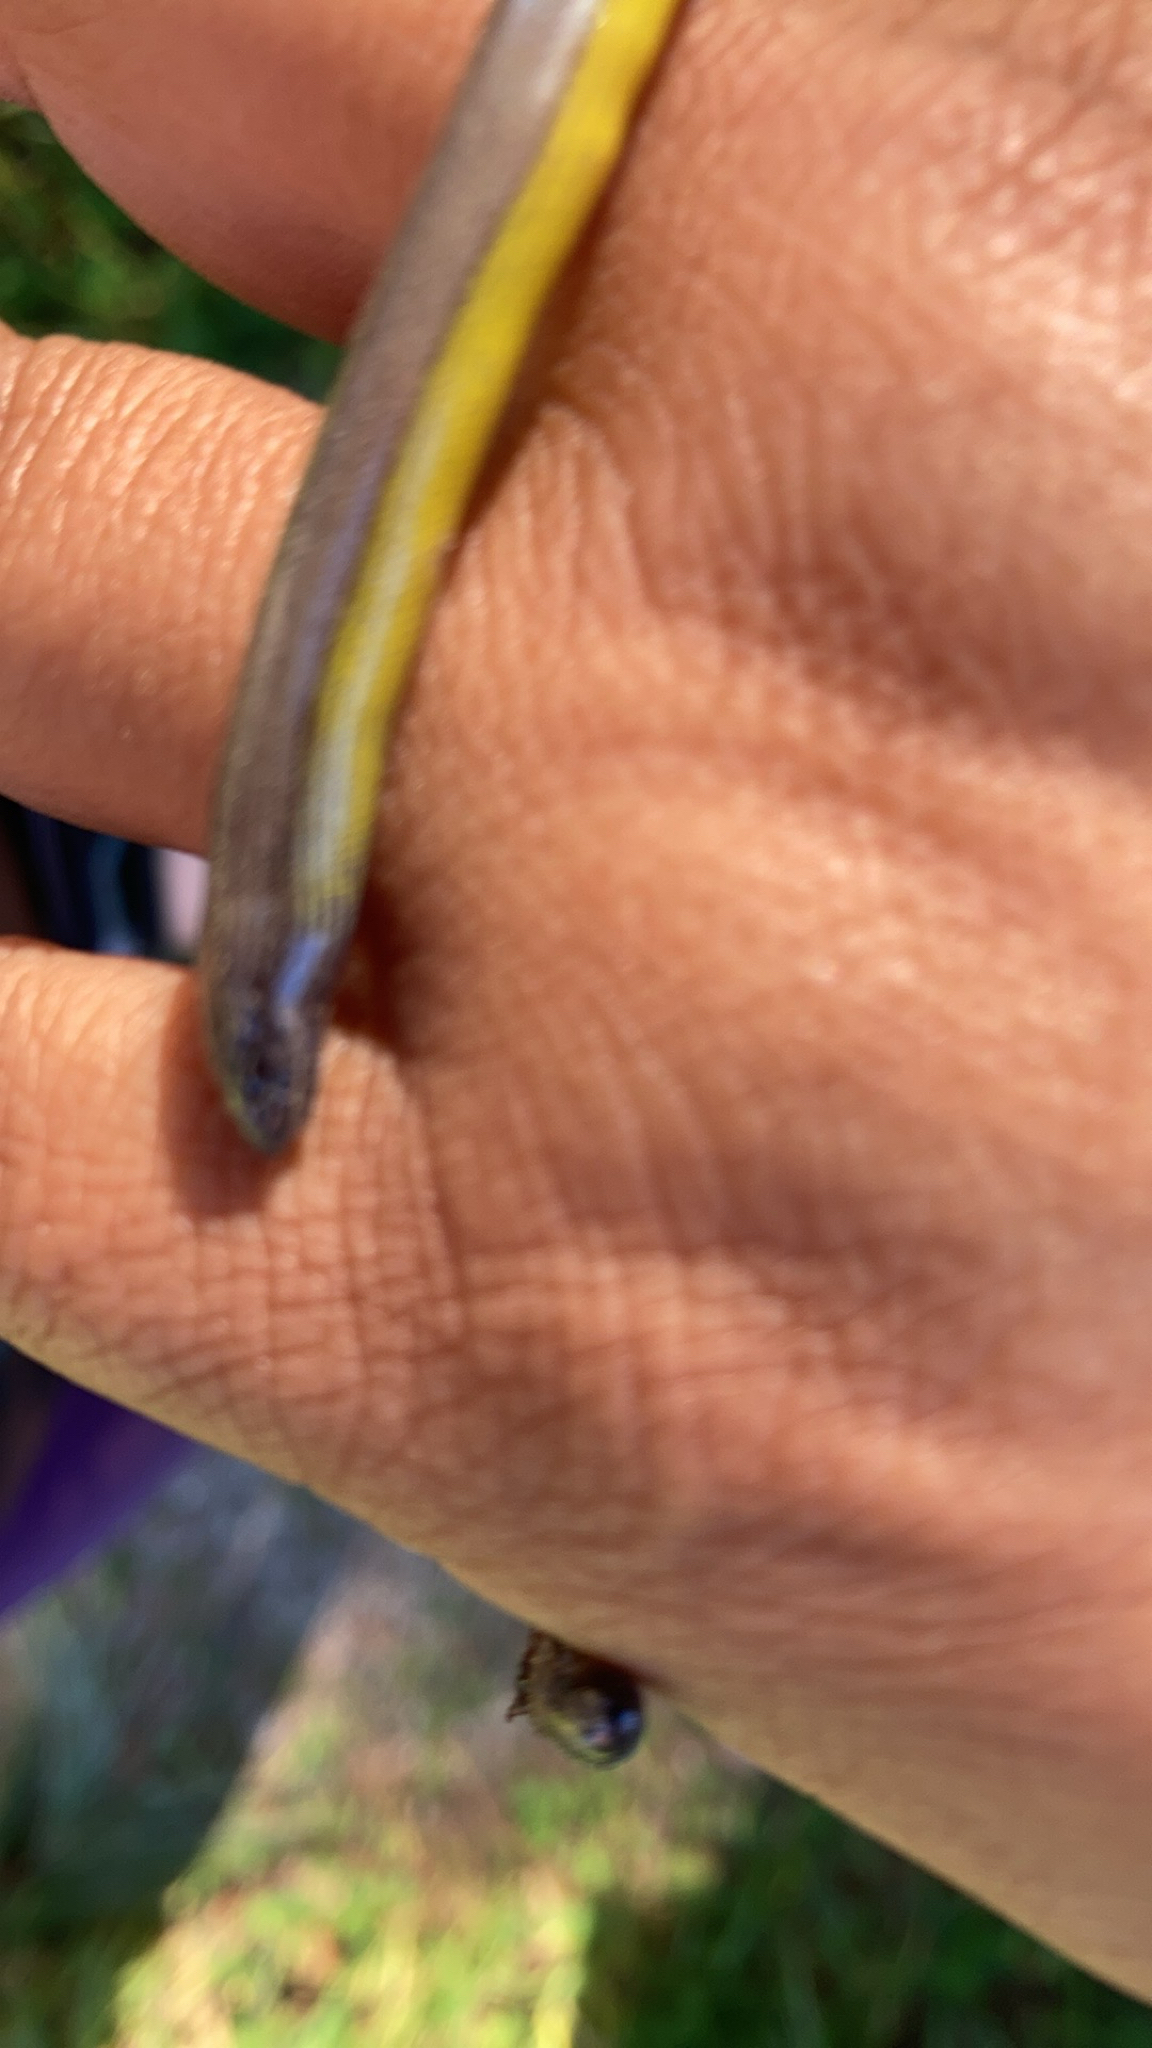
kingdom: Animalia
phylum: Chordata
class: Squamata
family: Anguidae
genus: Anniella
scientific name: Anniella stebbinsi
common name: Southern california legless lizard
